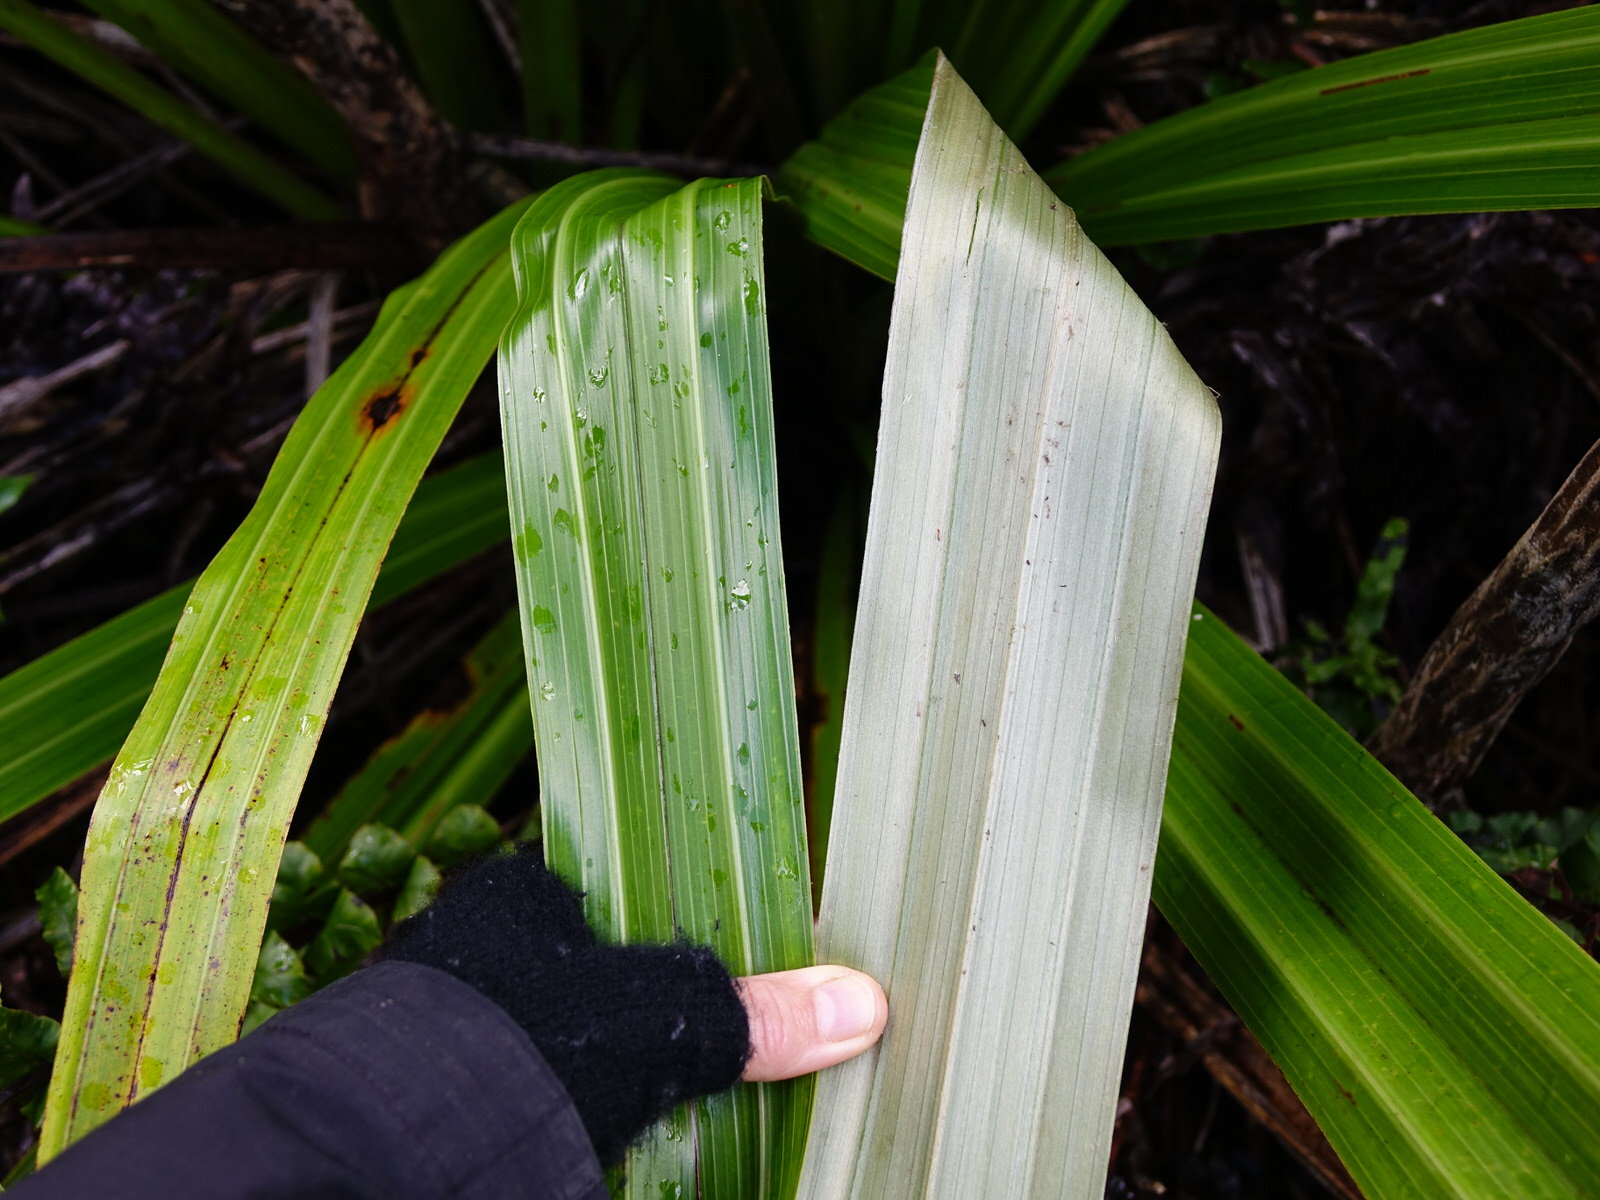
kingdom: Plantae
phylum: Tracheophyta
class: Liliopsida
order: Asparagales
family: Asteliaceae
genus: Astelia
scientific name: Astelia grandis
